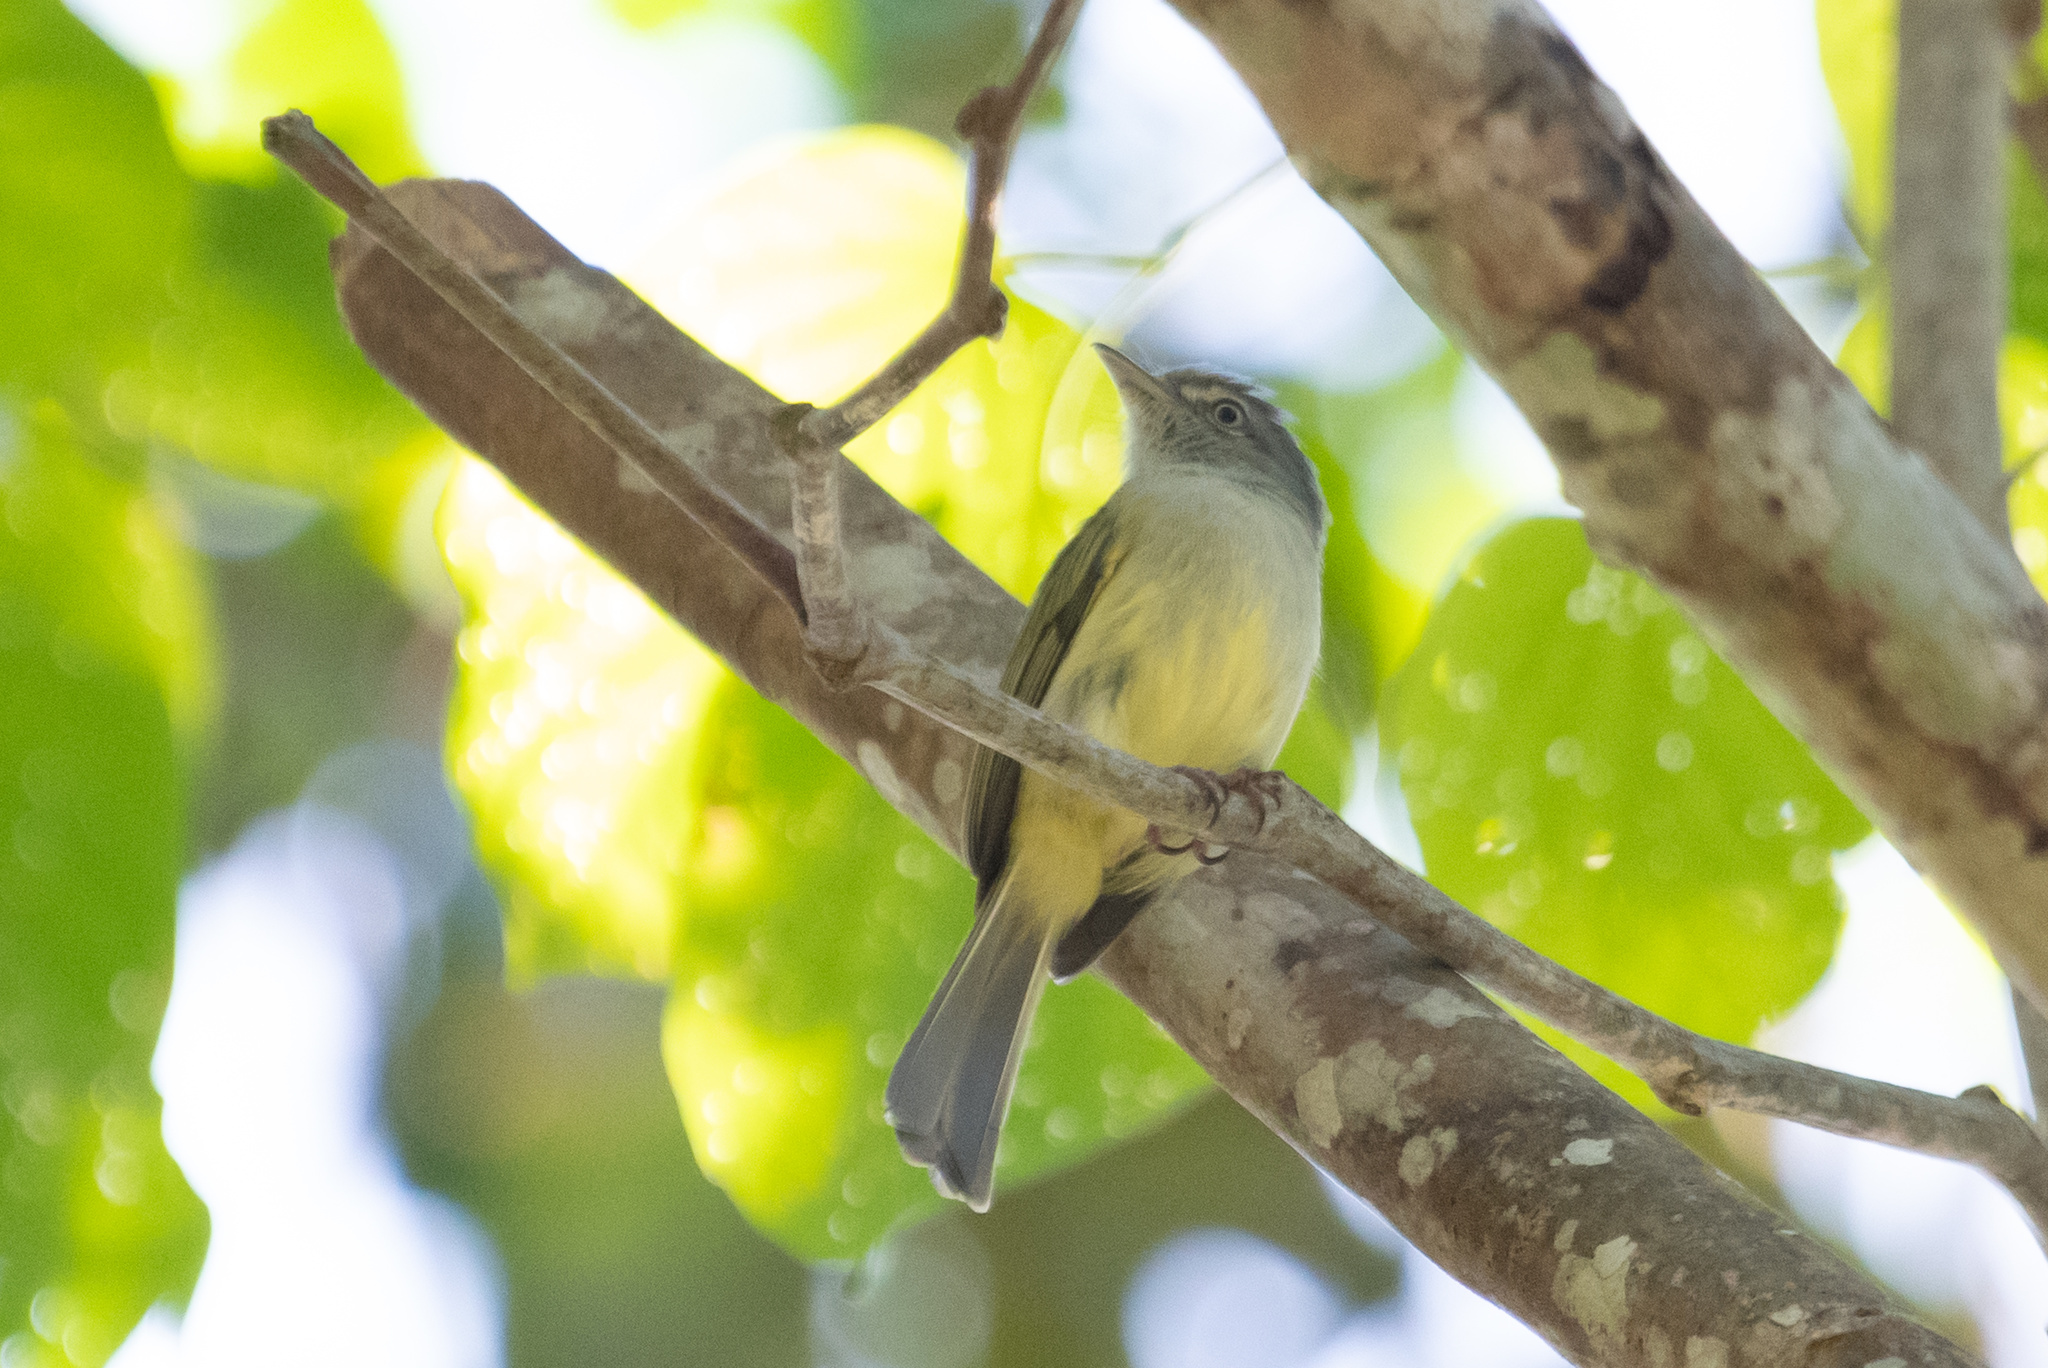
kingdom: Animalia
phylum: Chordata
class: Aves
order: Passeriformes
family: Tyrannidae
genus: Tolmomyias
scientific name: Tolmomyias sulphurescens
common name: Yellow-olive flycatcher
